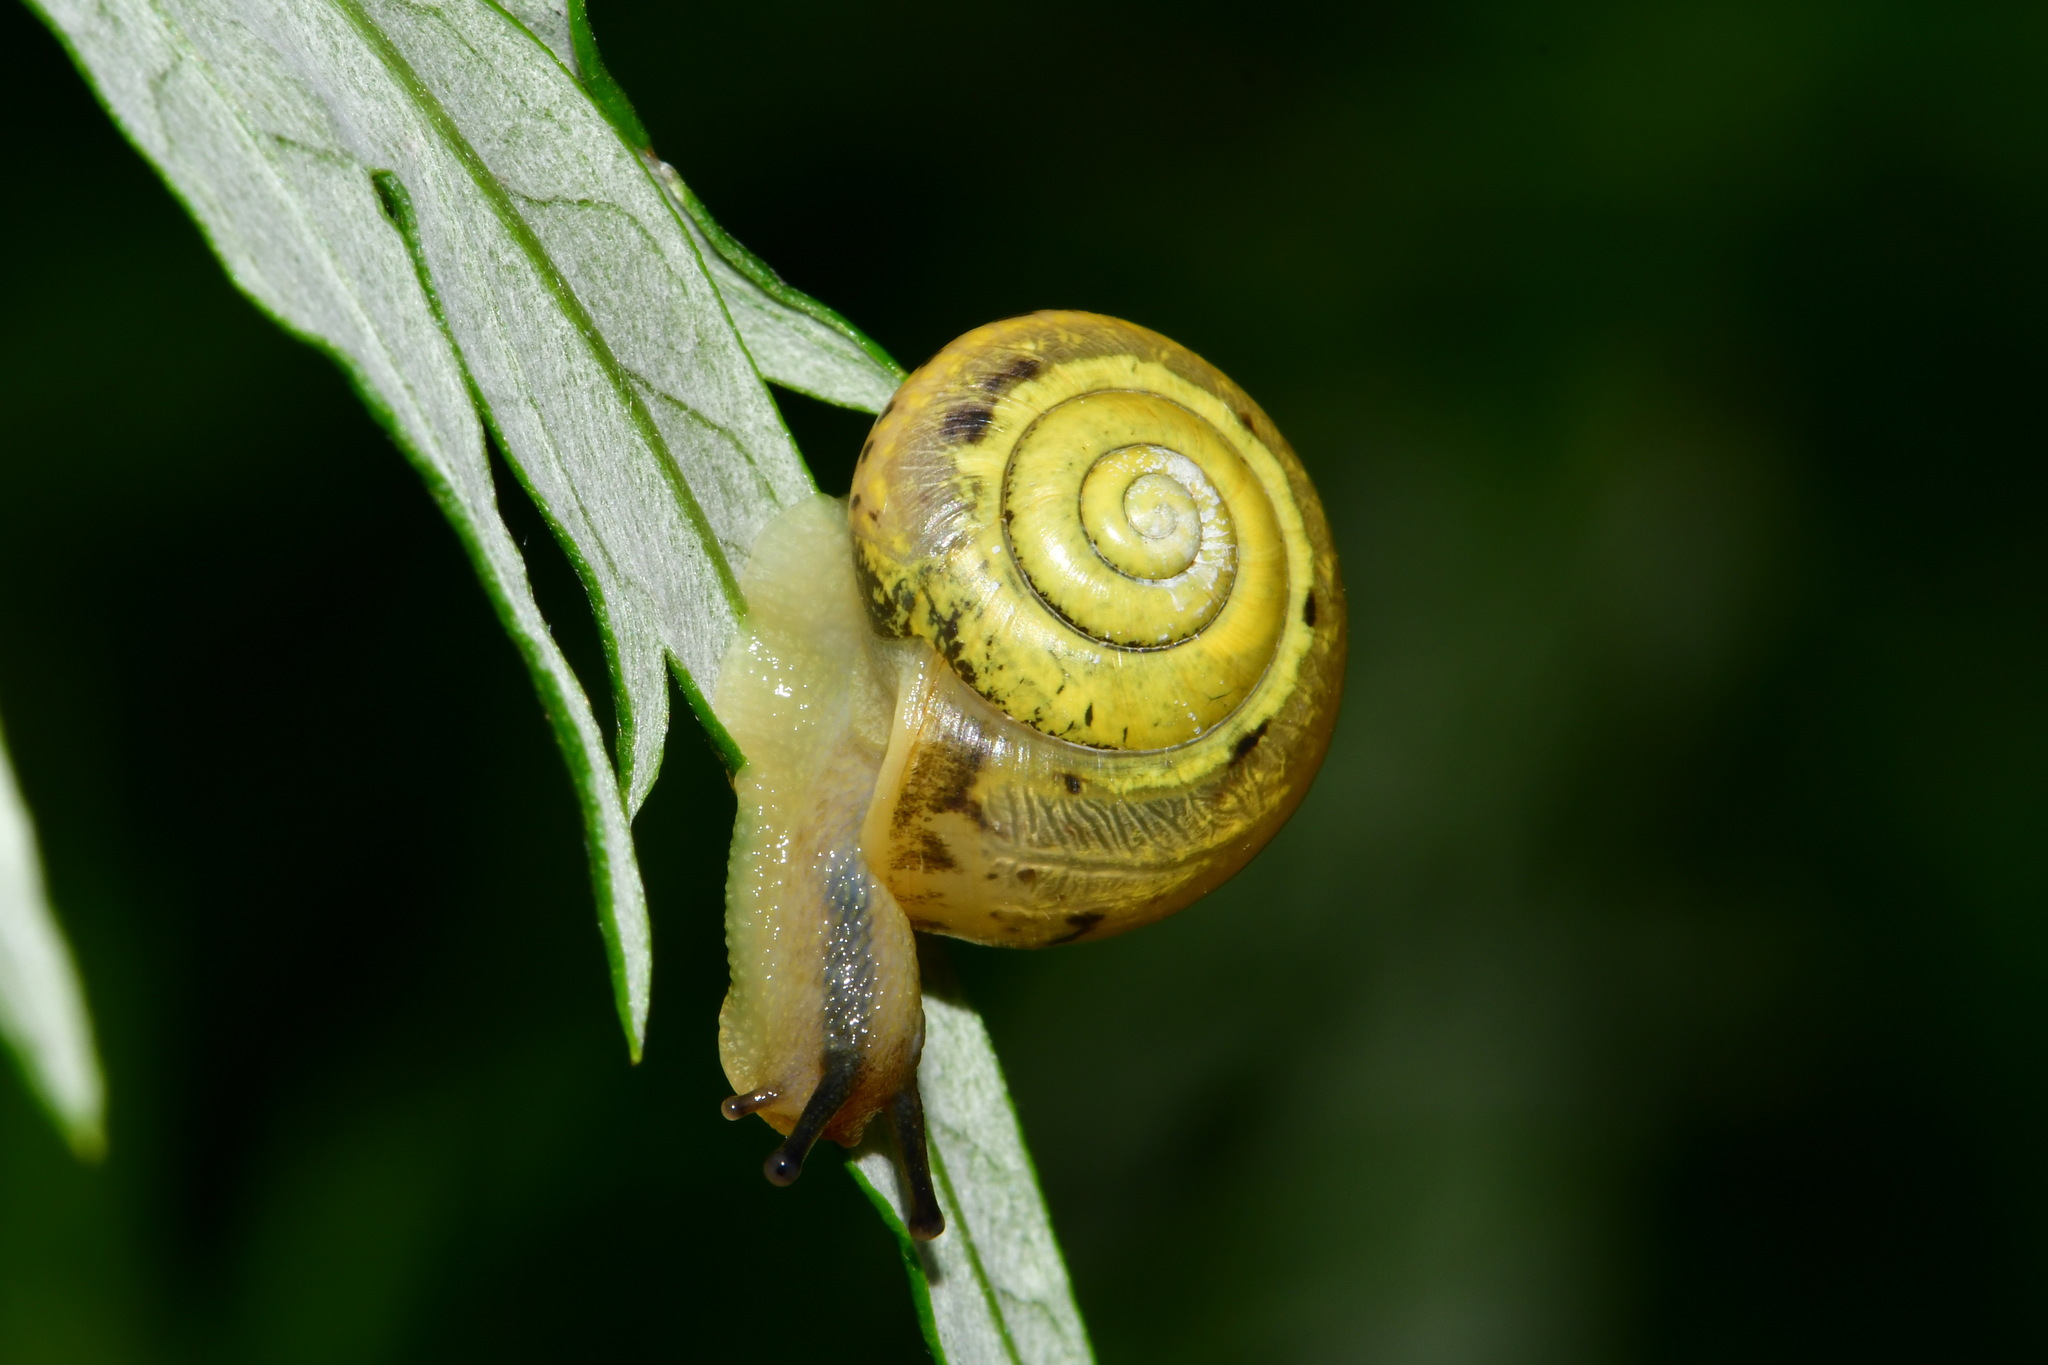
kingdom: Animalia
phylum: Mollusca
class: Gastropoda
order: Stylommatophora
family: Camaenidae
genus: Fruticicola
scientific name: Fruticicola fruticum
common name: Bush snail
